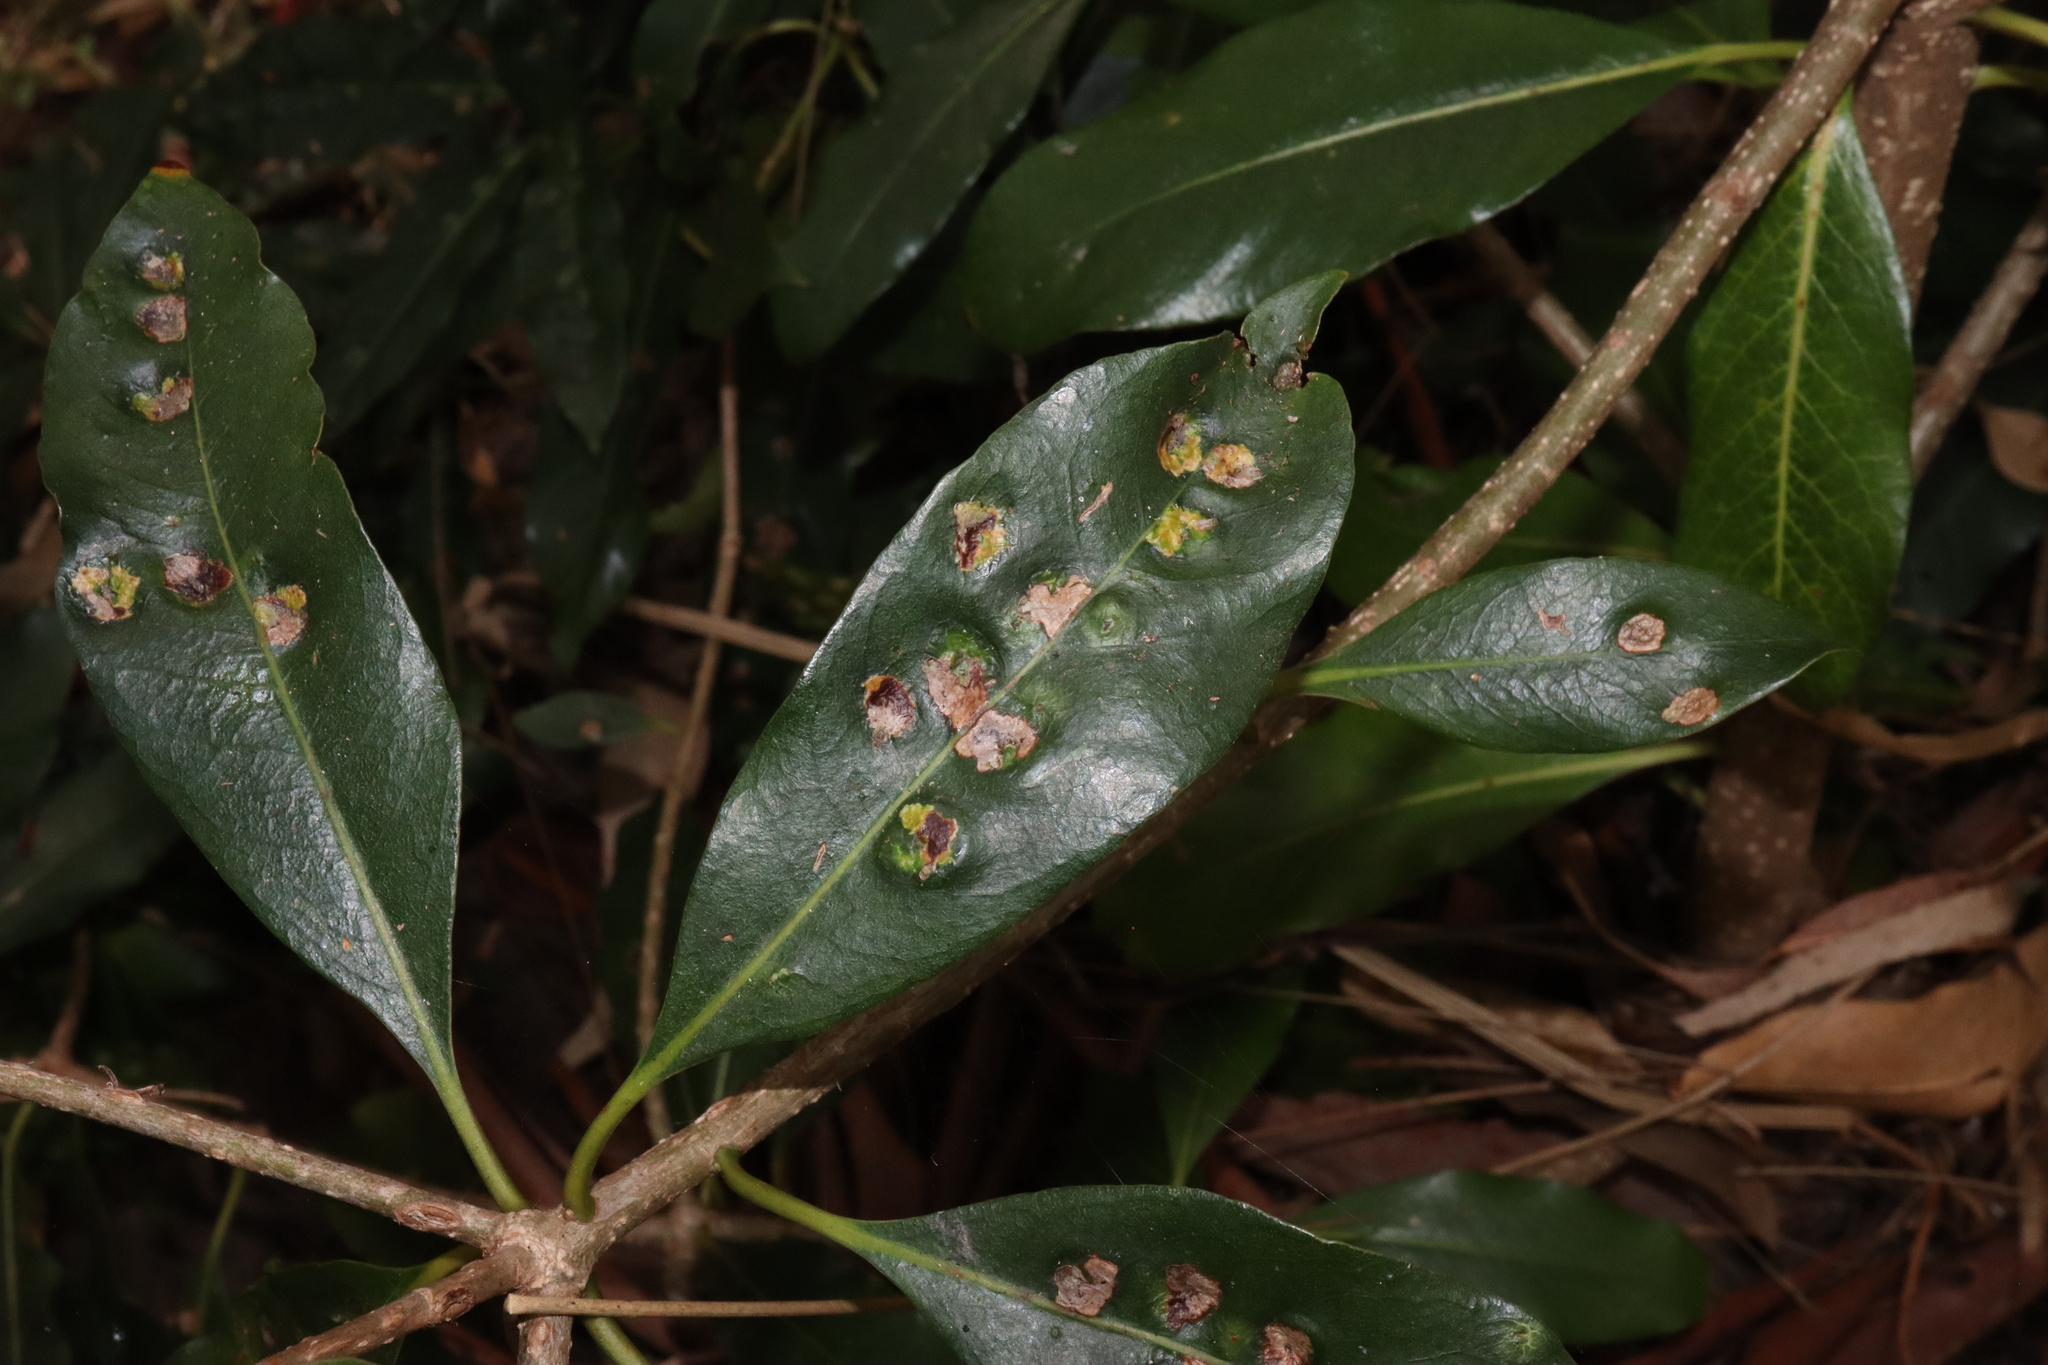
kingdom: Animalia
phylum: Arthropoda
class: Insecta
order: Diptera
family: Agromyzidae
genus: Phytoliriomyza
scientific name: Phytoliriomyza pittosporophylli
